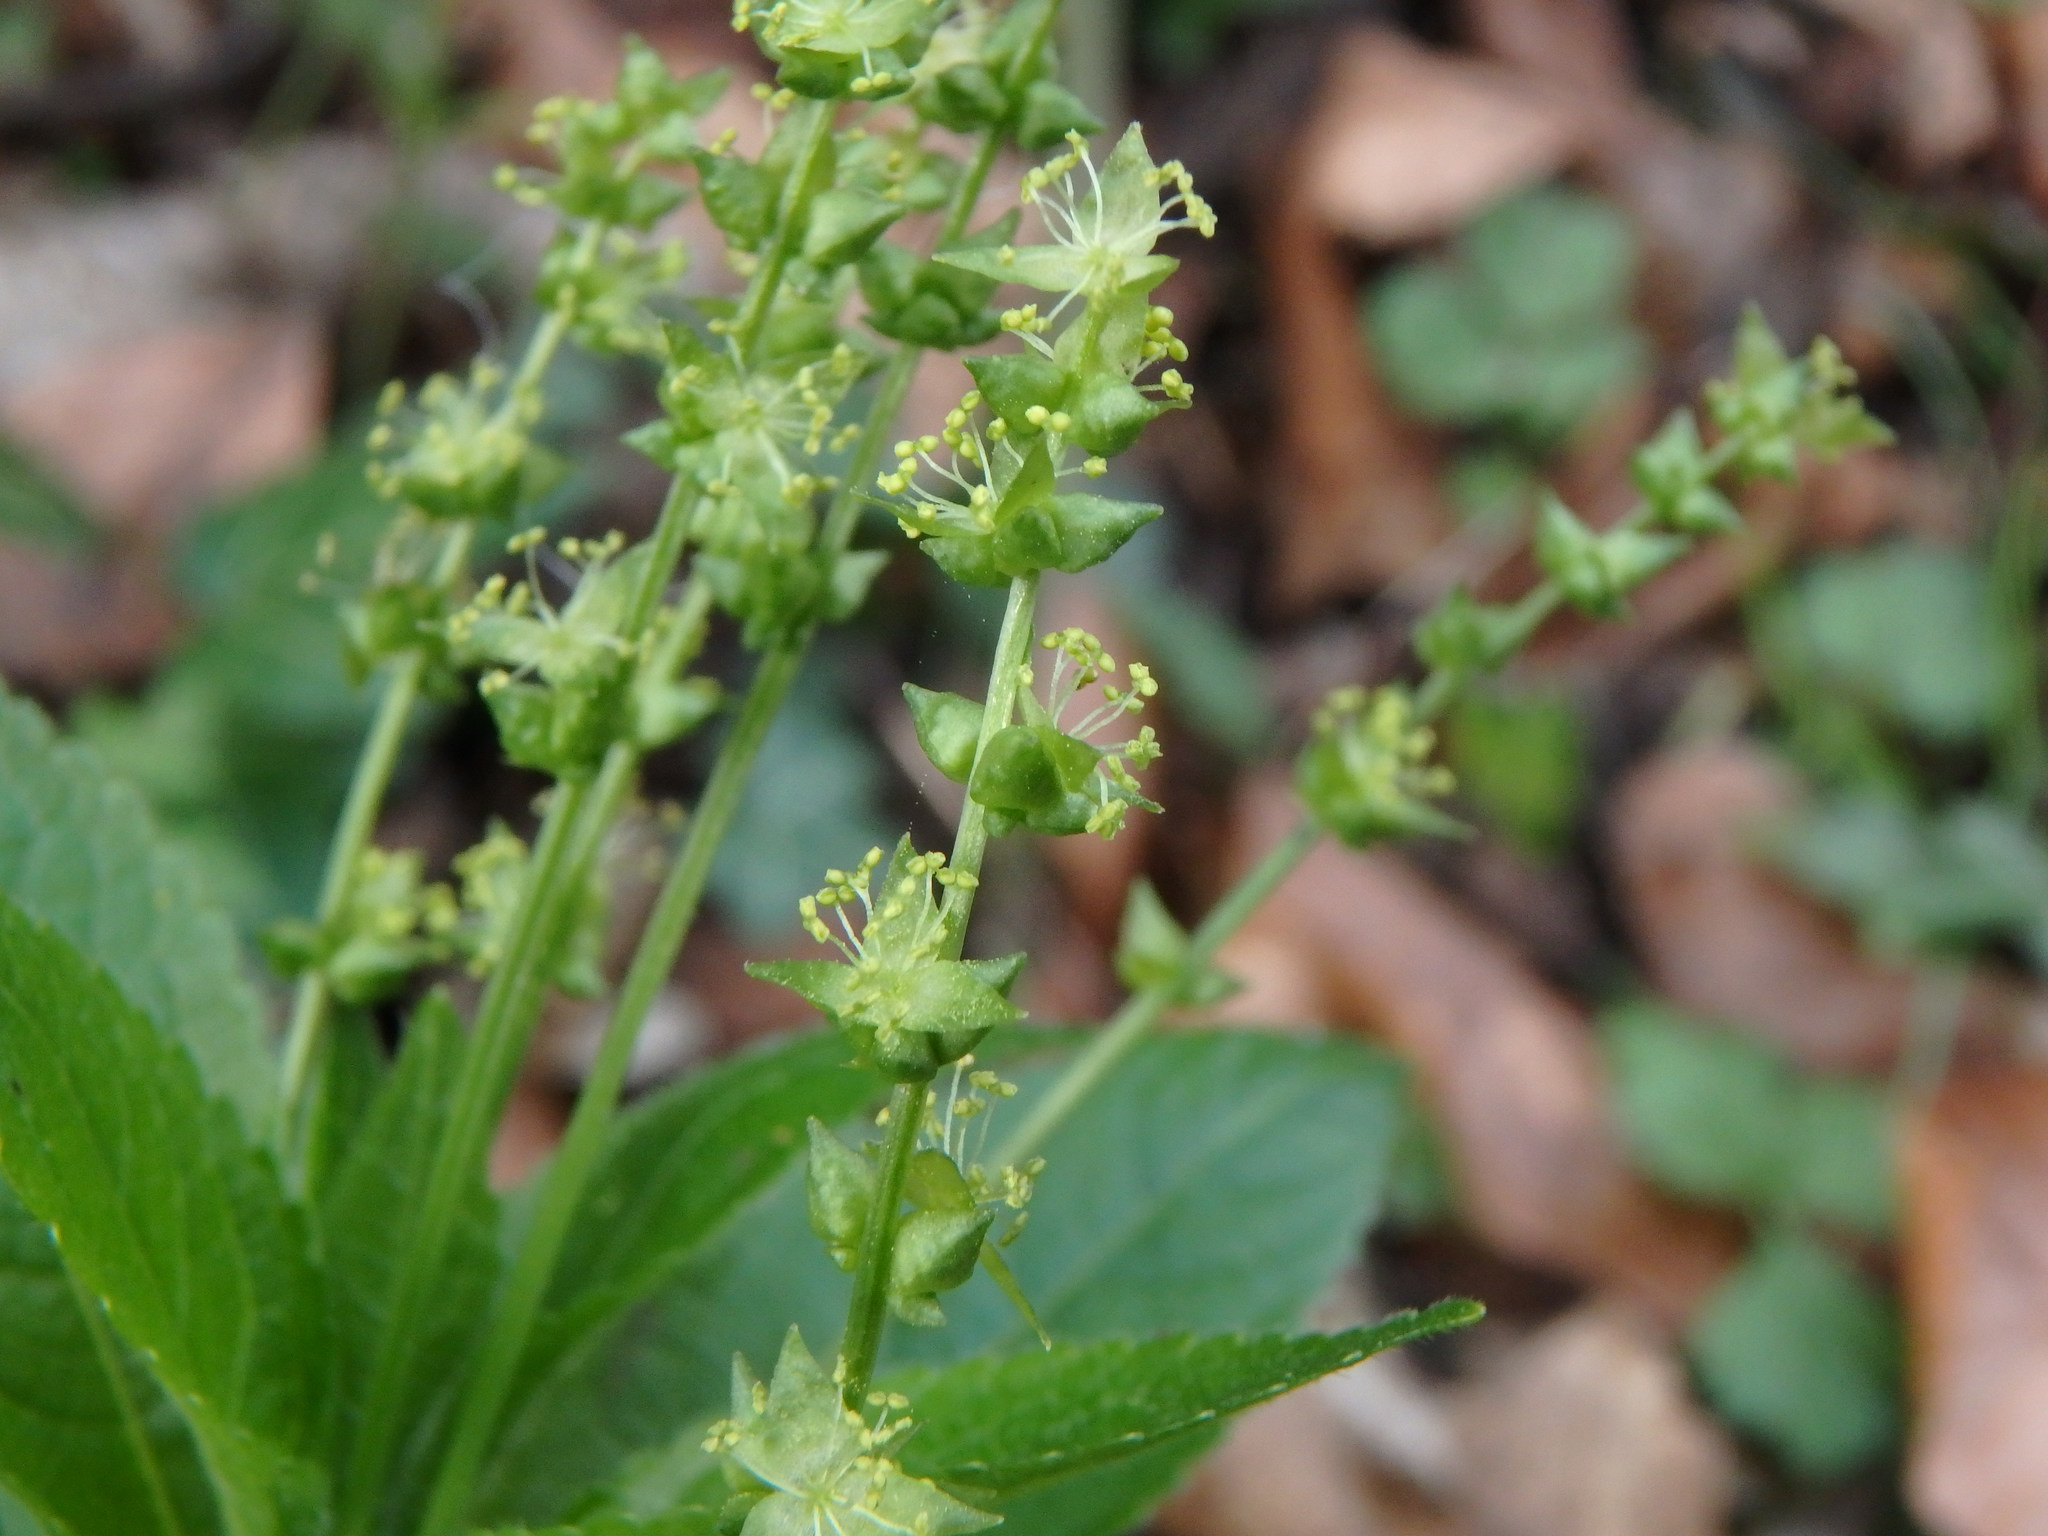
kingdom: Plantae
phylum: Tracheophyta
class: Magnoliopsida
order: Malpighiales
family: Euphorbiaceae
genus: Mercurialis
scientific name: Mercurialis perennis
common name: Dog mercury
